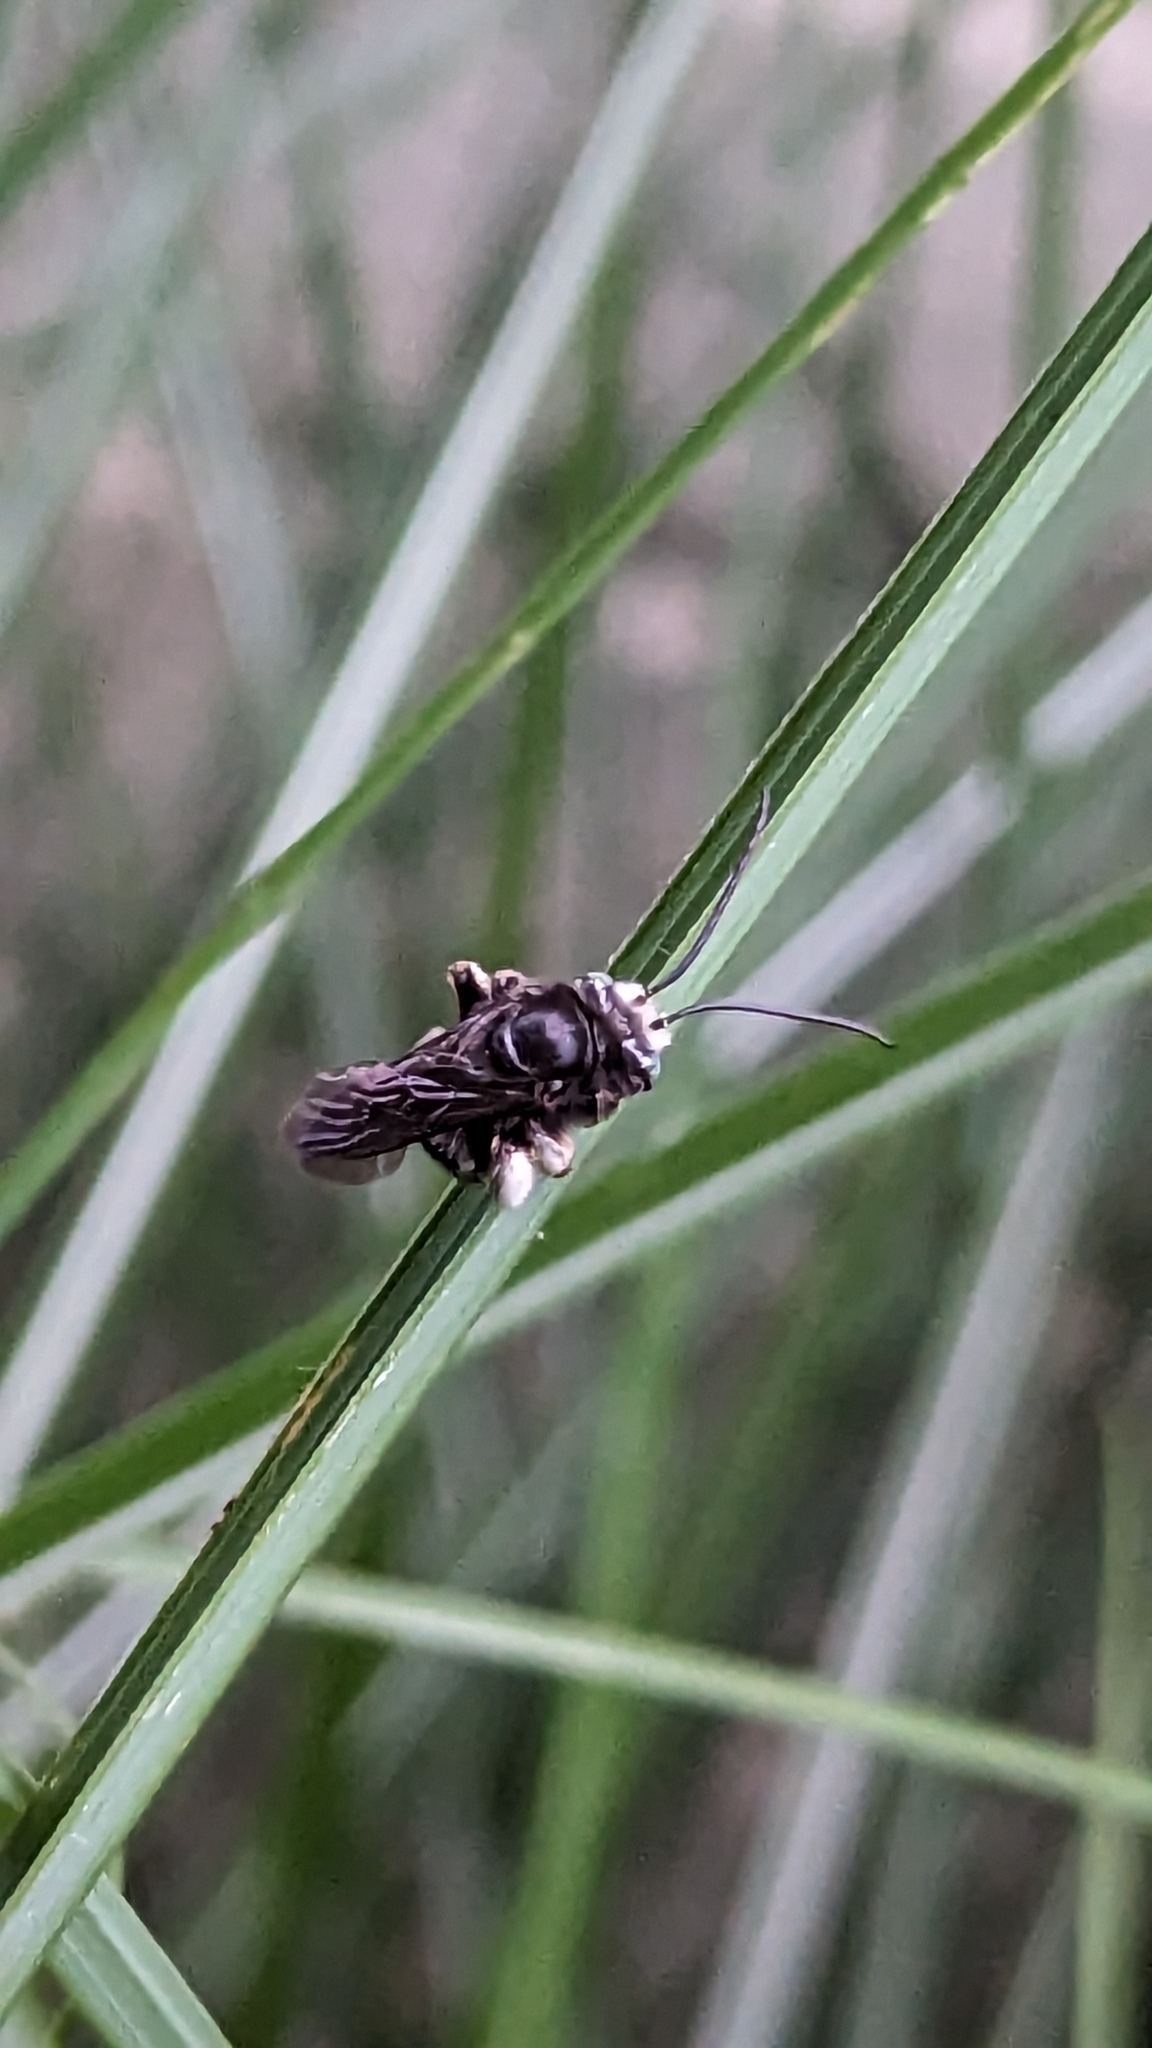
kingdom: Animalia
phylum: Arthropoda
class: Insecta
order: Hymenoptera
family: Apidae
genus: Melissodes
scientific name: Melissodes bimaculatus
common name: Two-spotted long-horned bee
